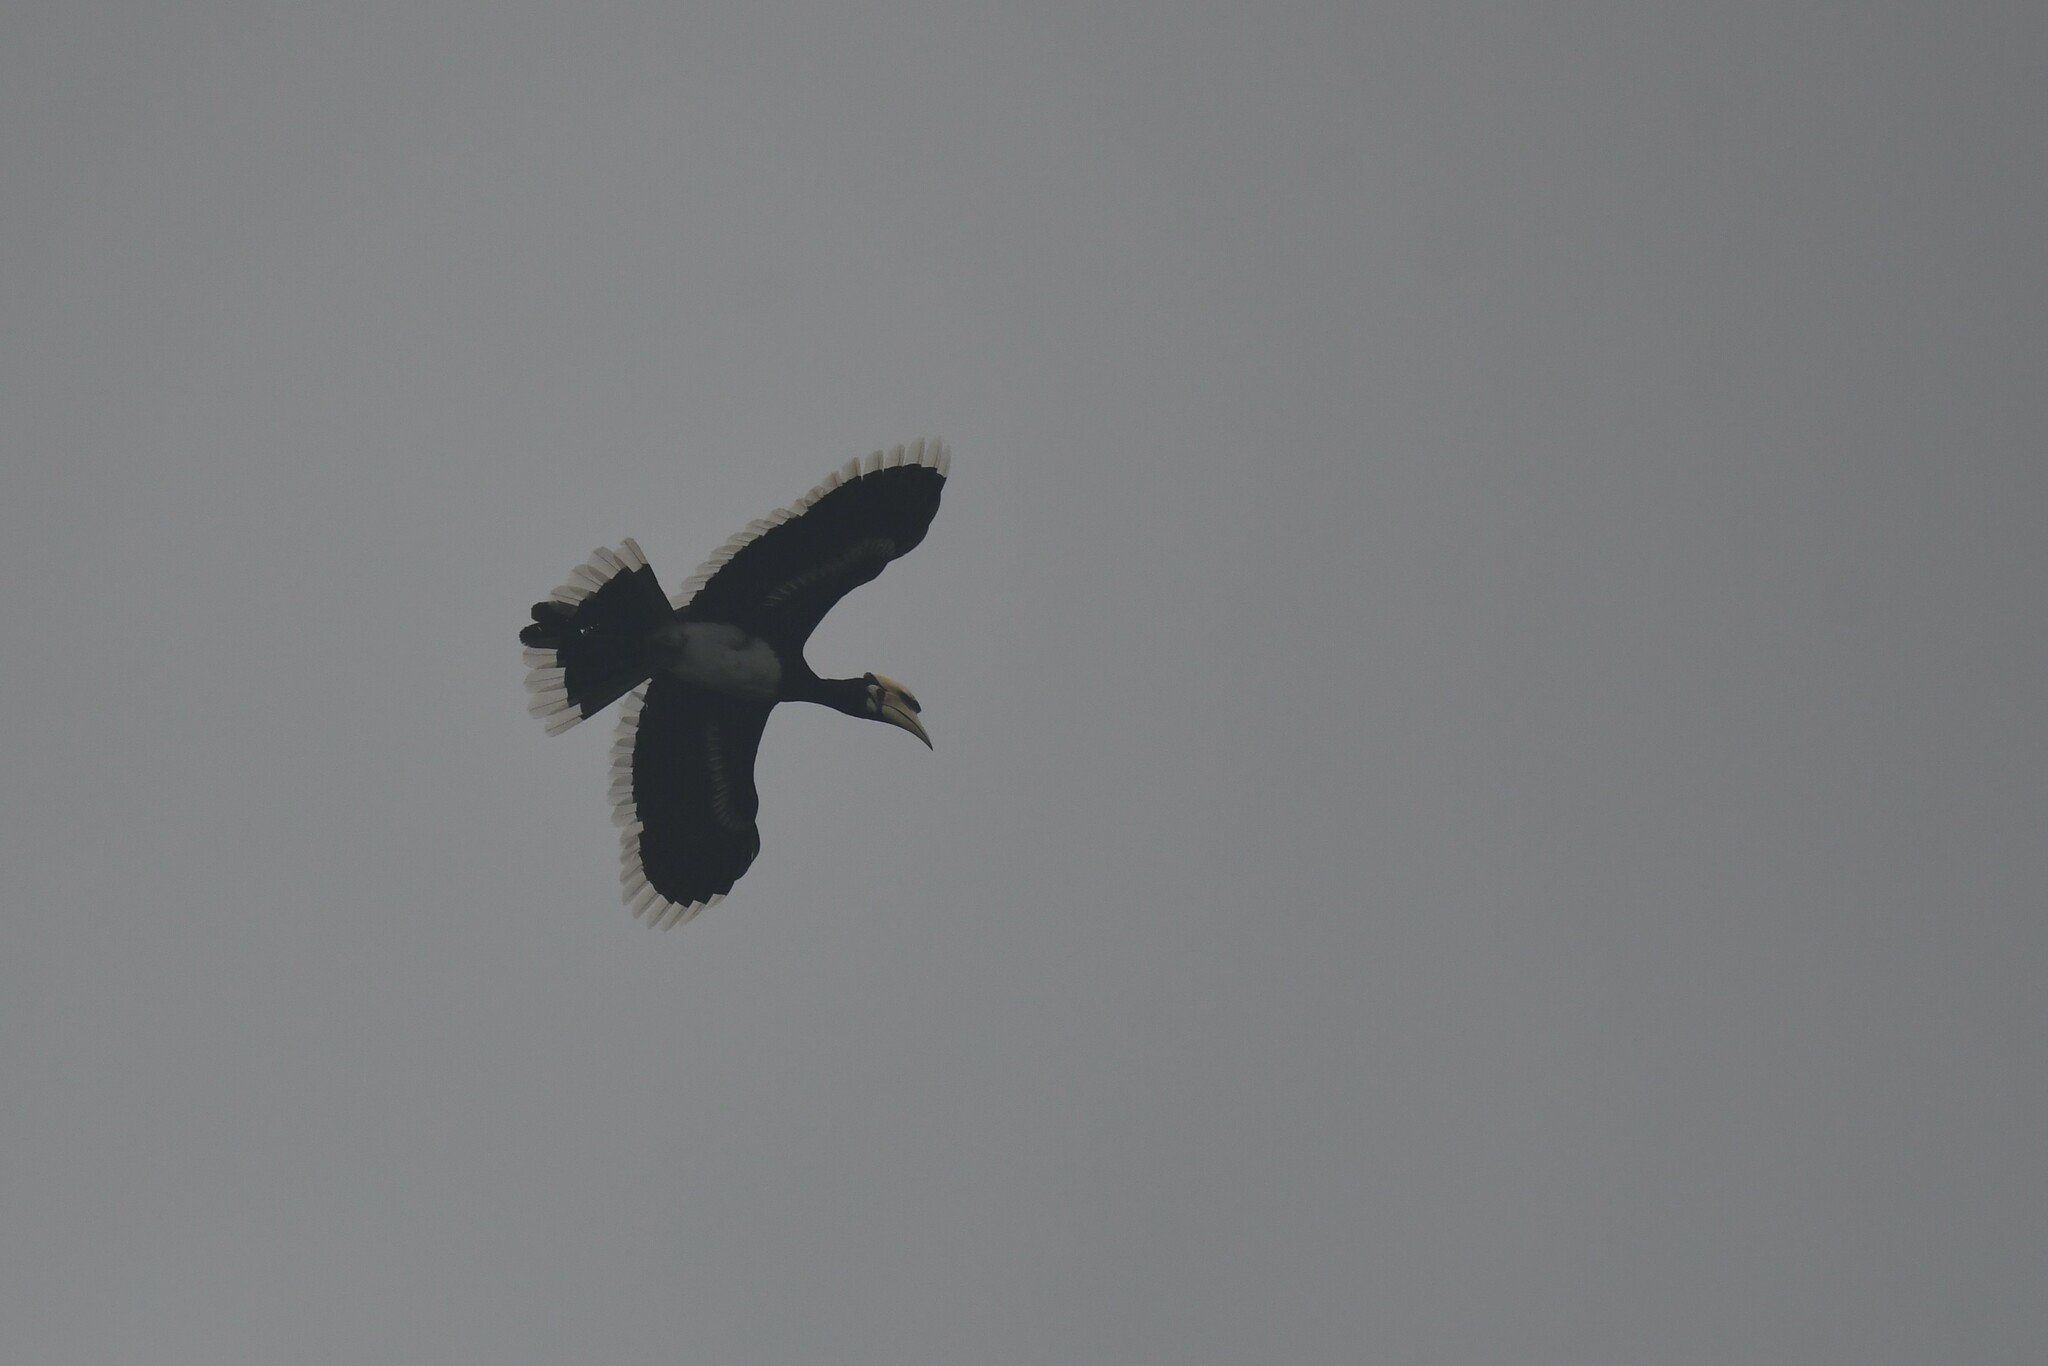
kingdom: Animalia
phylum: Chordata
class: Aves
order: Bucerotiformes
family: Bucerotidae
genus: Anthracoceros
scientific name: Anthracoceros albirostris
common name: Oriental pied-hornbill
